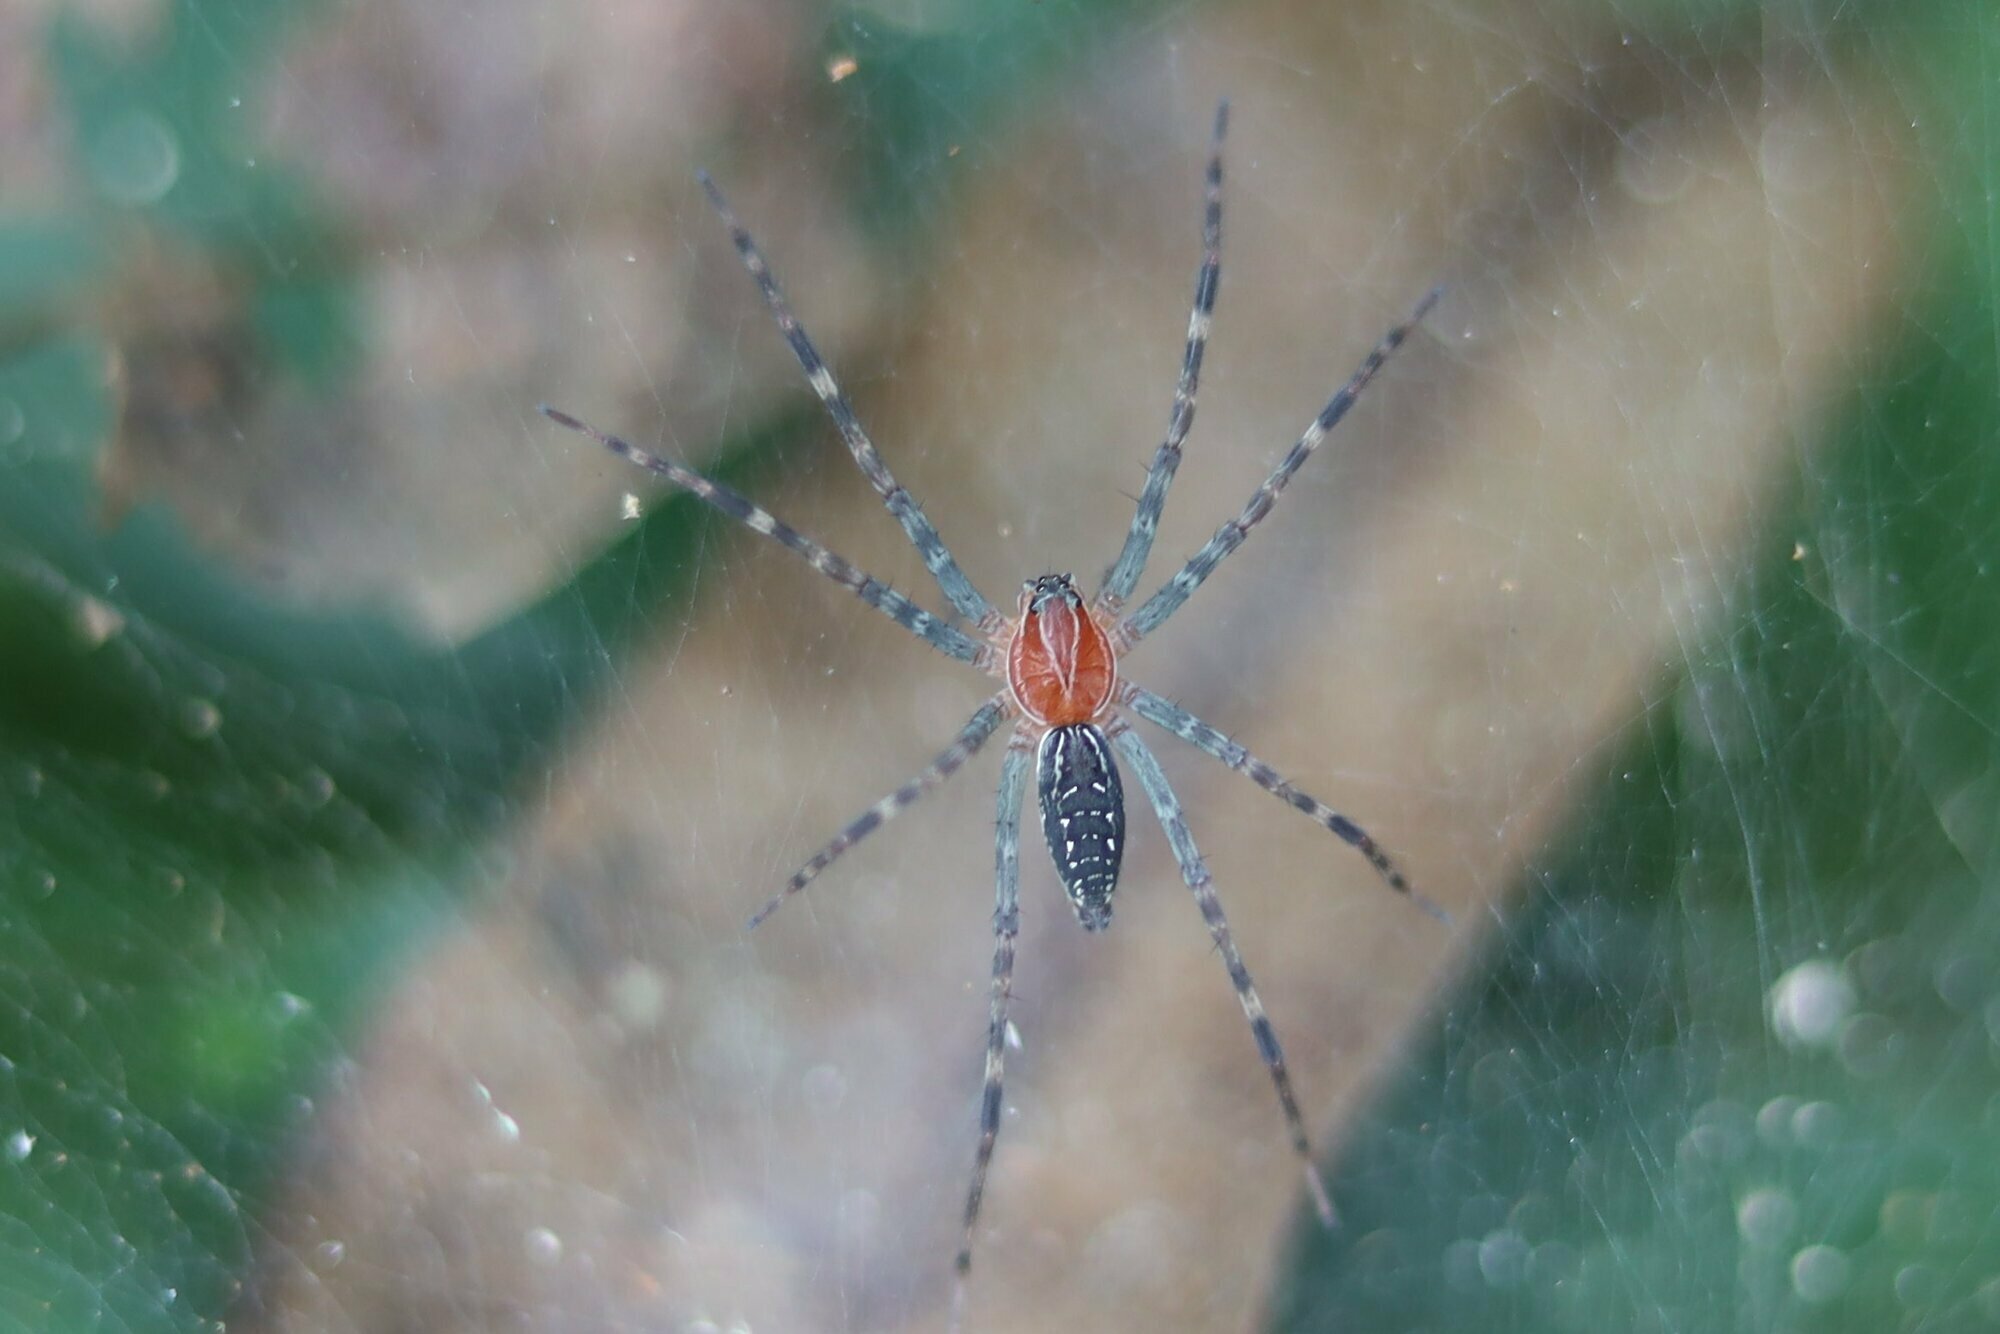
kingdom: Animalia
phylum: Arthropoda
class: Arachnida
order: Araneae
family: Lycosidae
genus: Aglaoctenus
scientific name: Aglaoctenus castaneus
